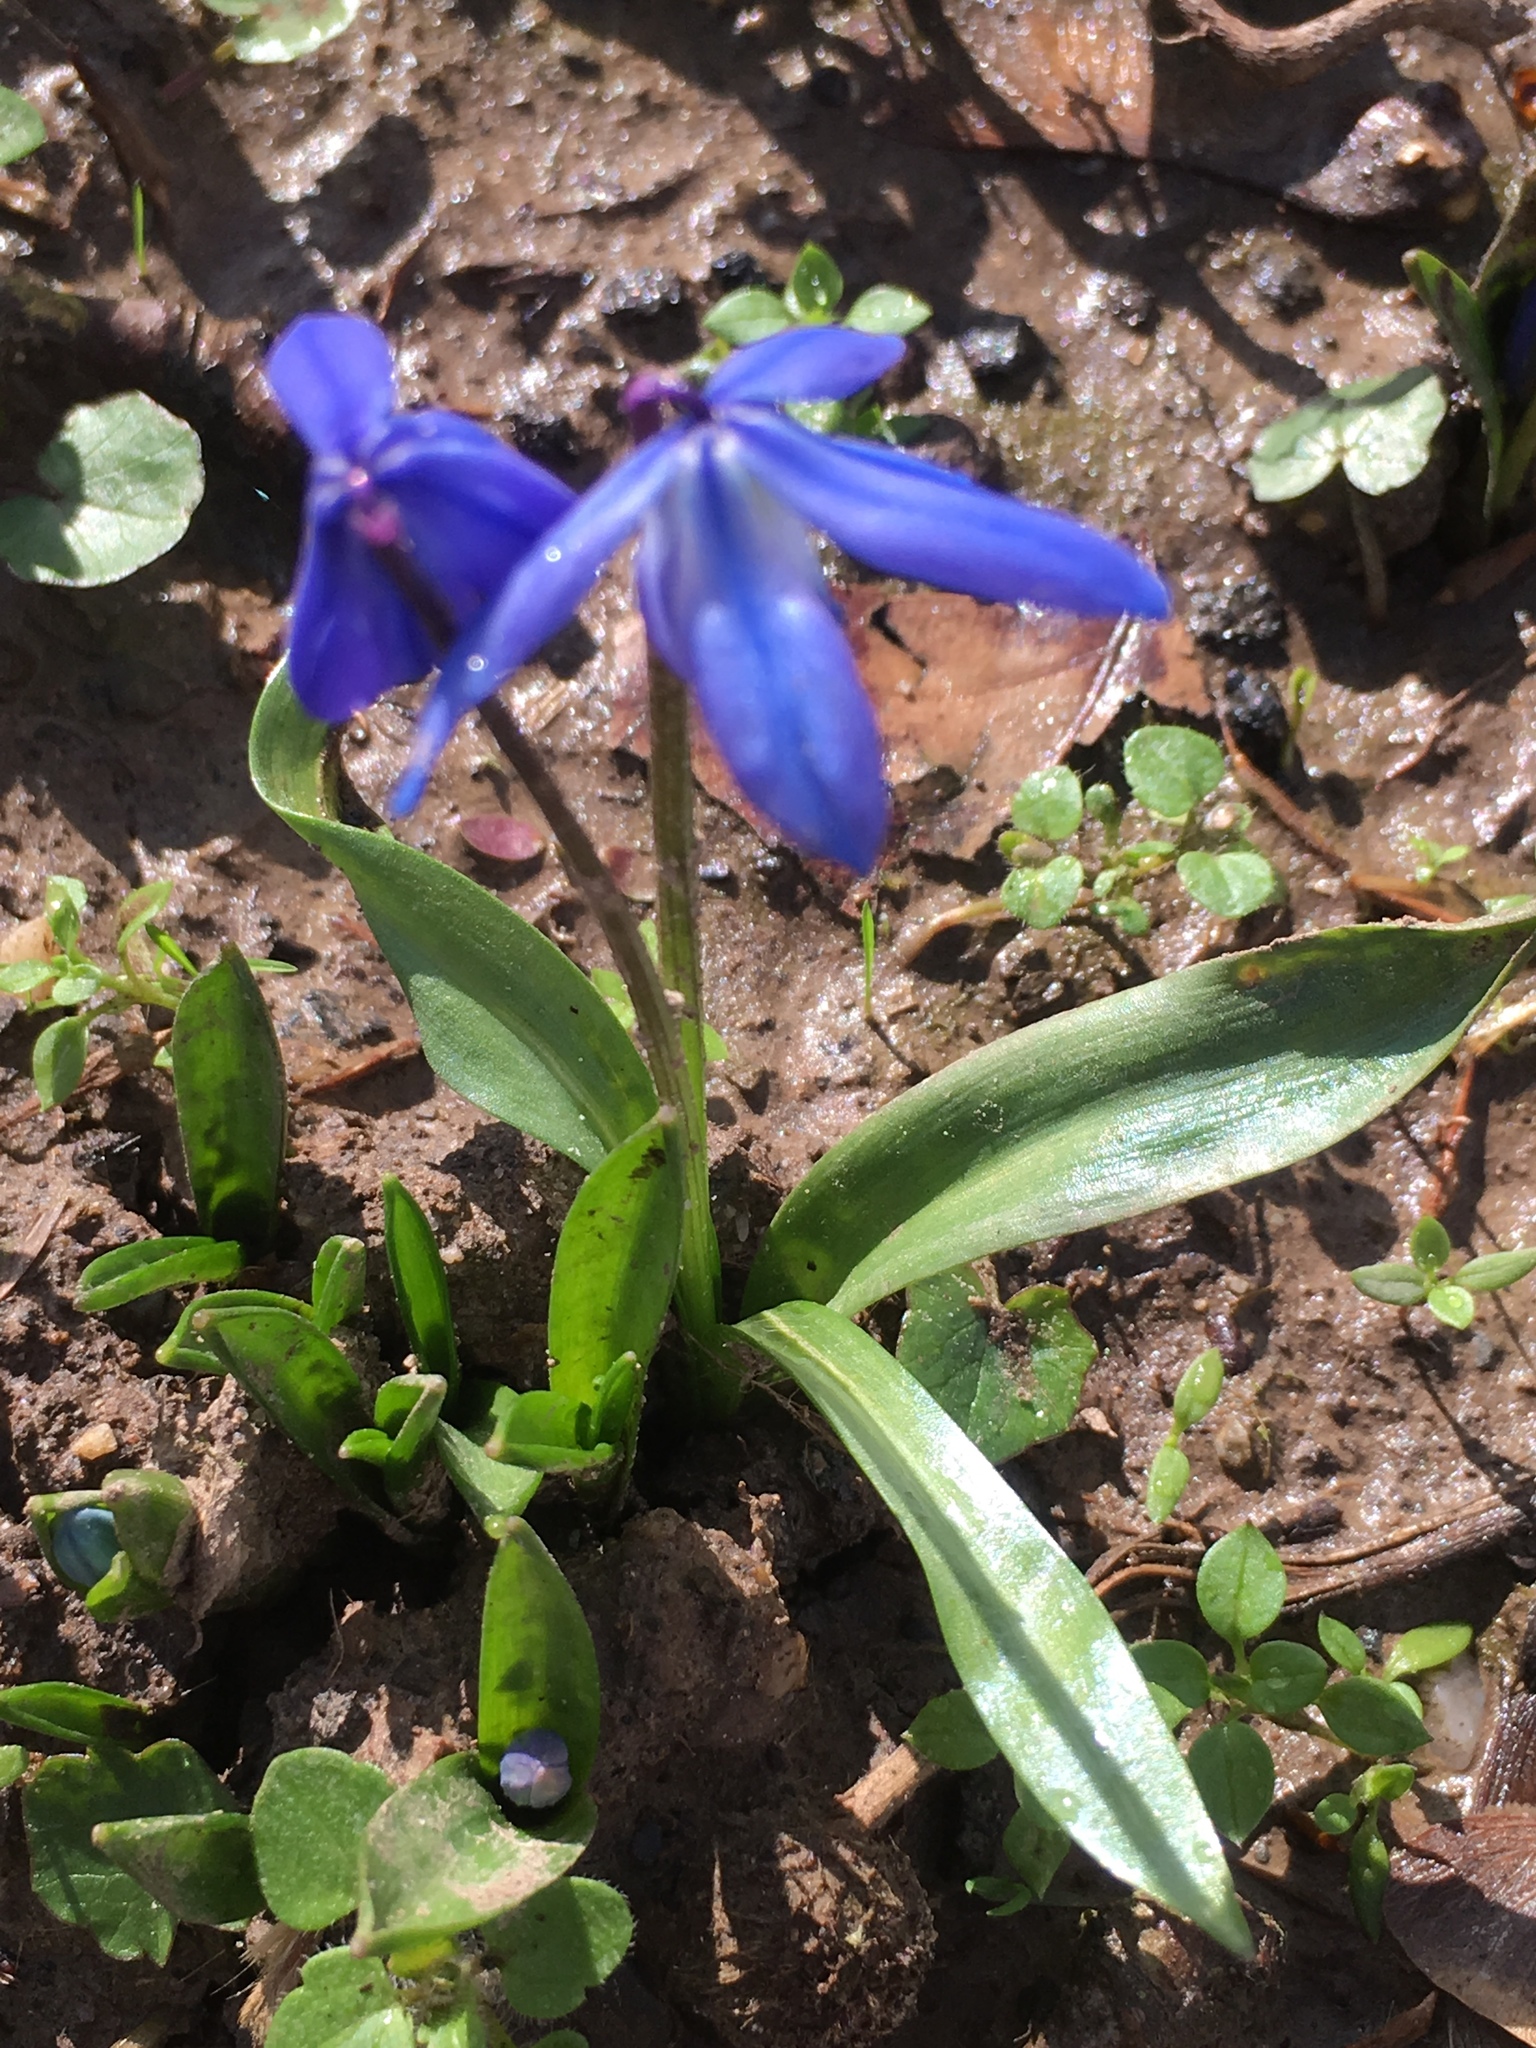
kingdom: Plantae
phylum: Tracheophyta
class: Liliopsida
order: Asparagales
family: Asparagaceae
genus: Scilla
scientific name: Scilla siberica
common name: Siberian squill
